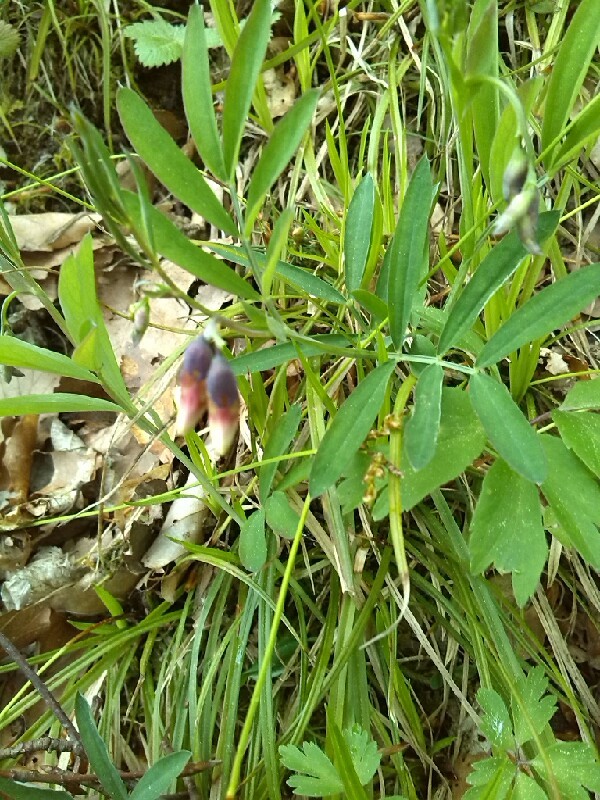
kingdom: Plantae
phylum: Tracheophyta
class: Magnoliopsida
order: Fabales
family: Fabaceae
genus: Lathyrus
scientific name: Lathyrus linifolius
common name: Bitter-vetch
